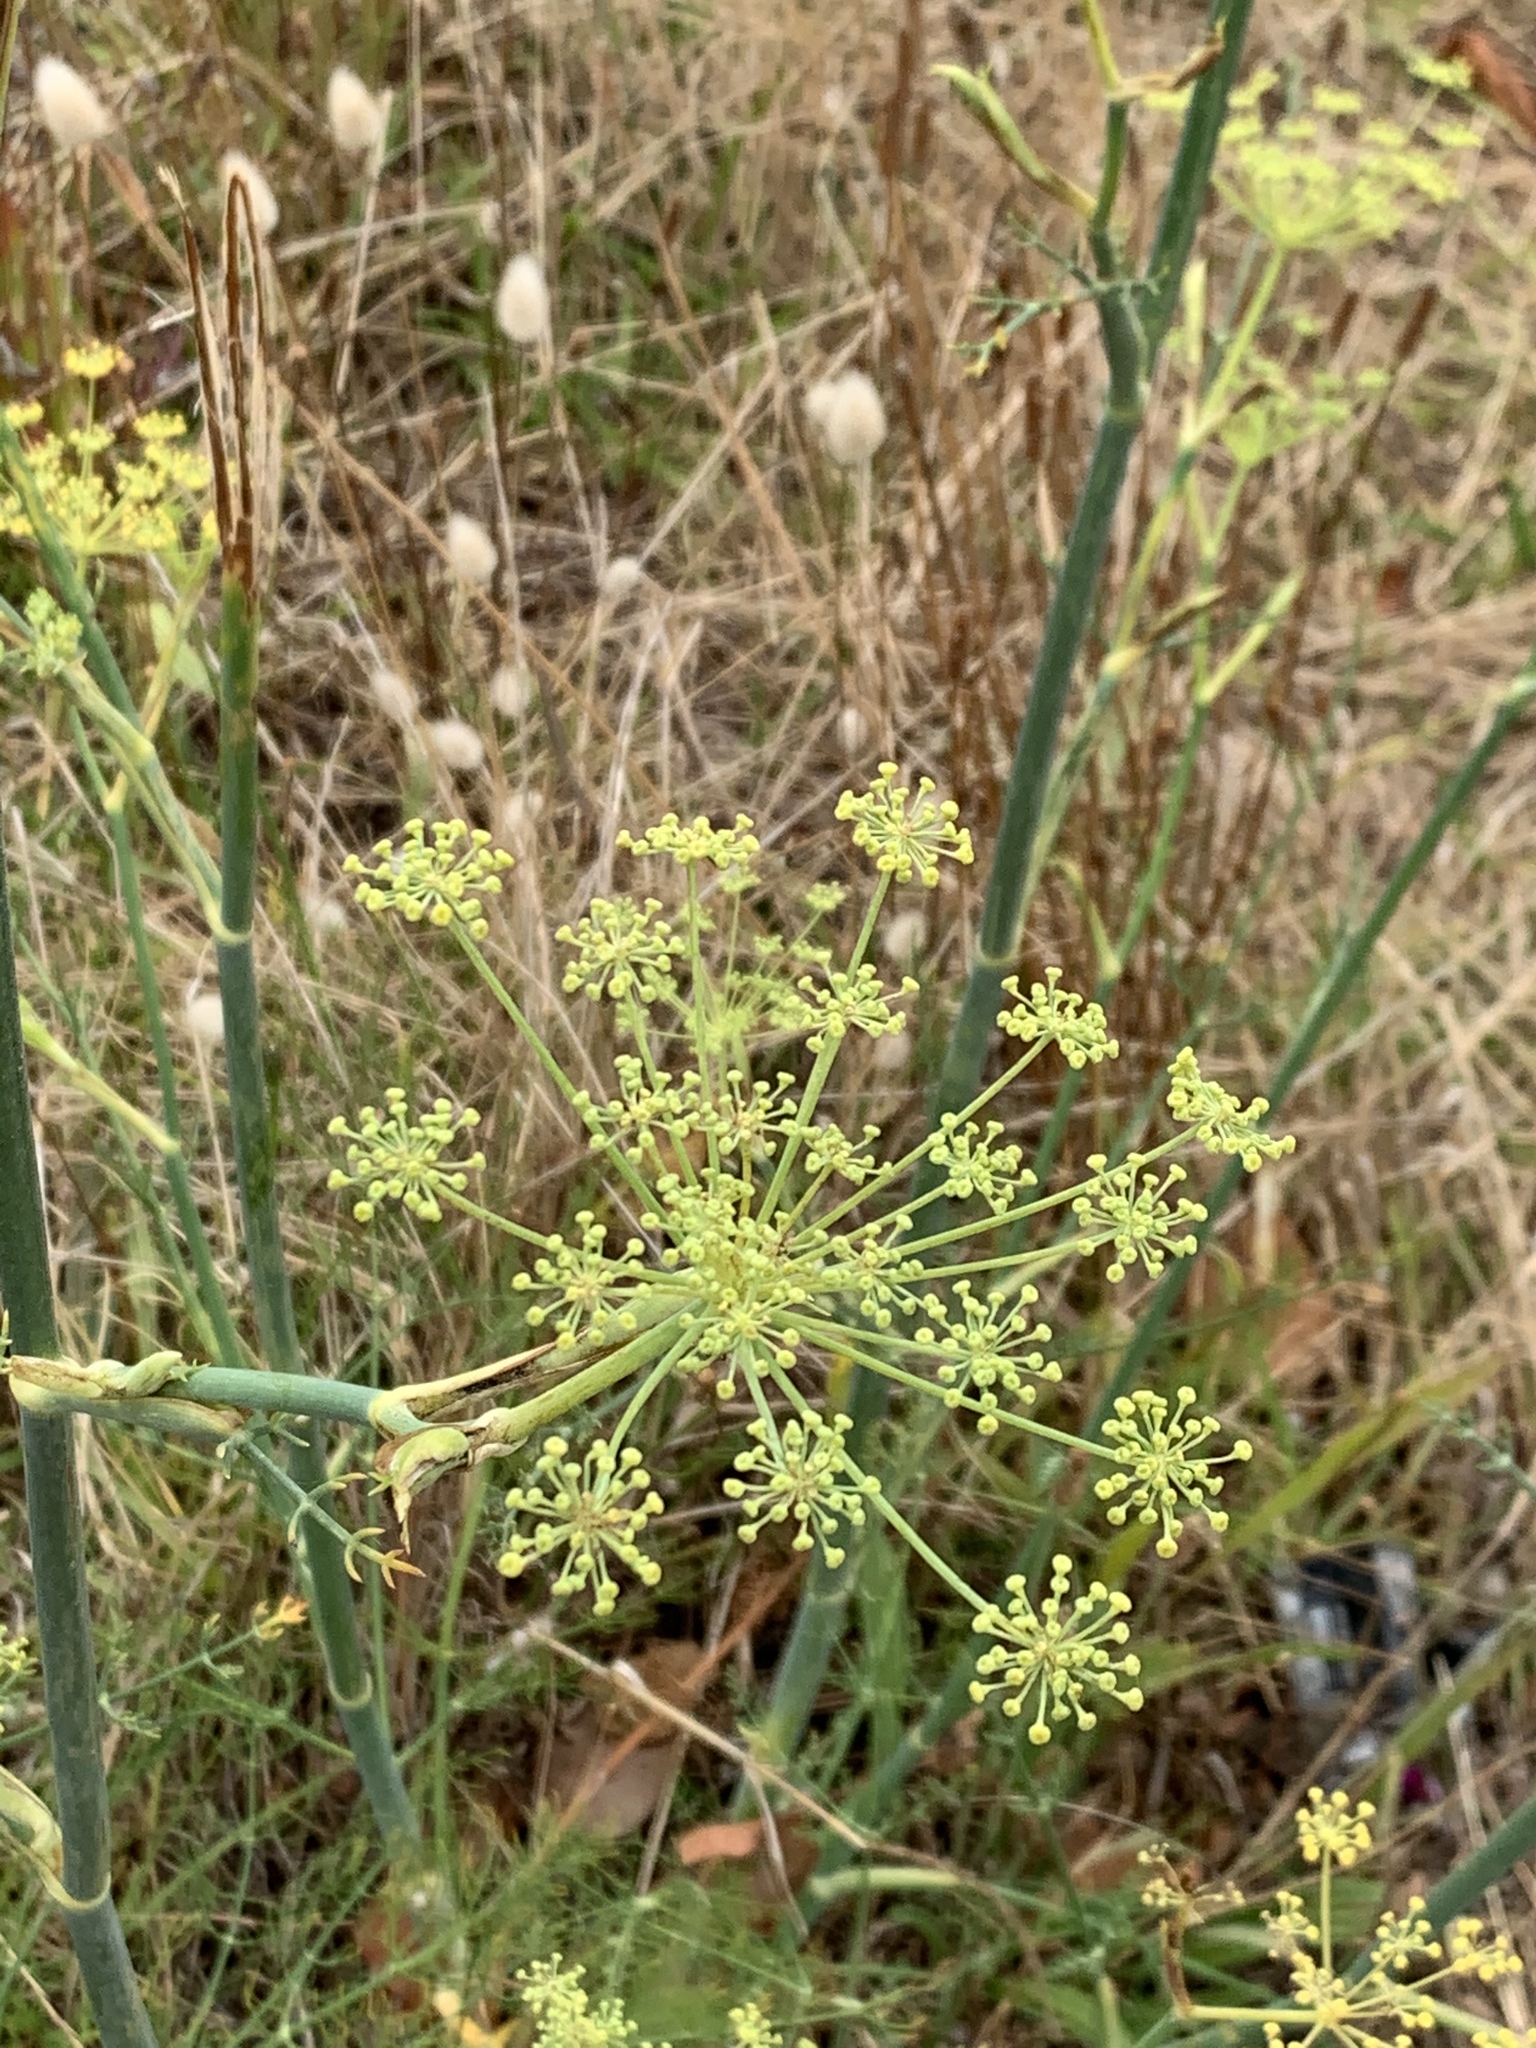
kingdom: Plantae
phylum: Tracheophyta
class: Magnoliopsida
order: Apiales
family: Apiaceae
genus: Foeniculum
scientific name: Foeniculum vulgare
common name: Fennel
